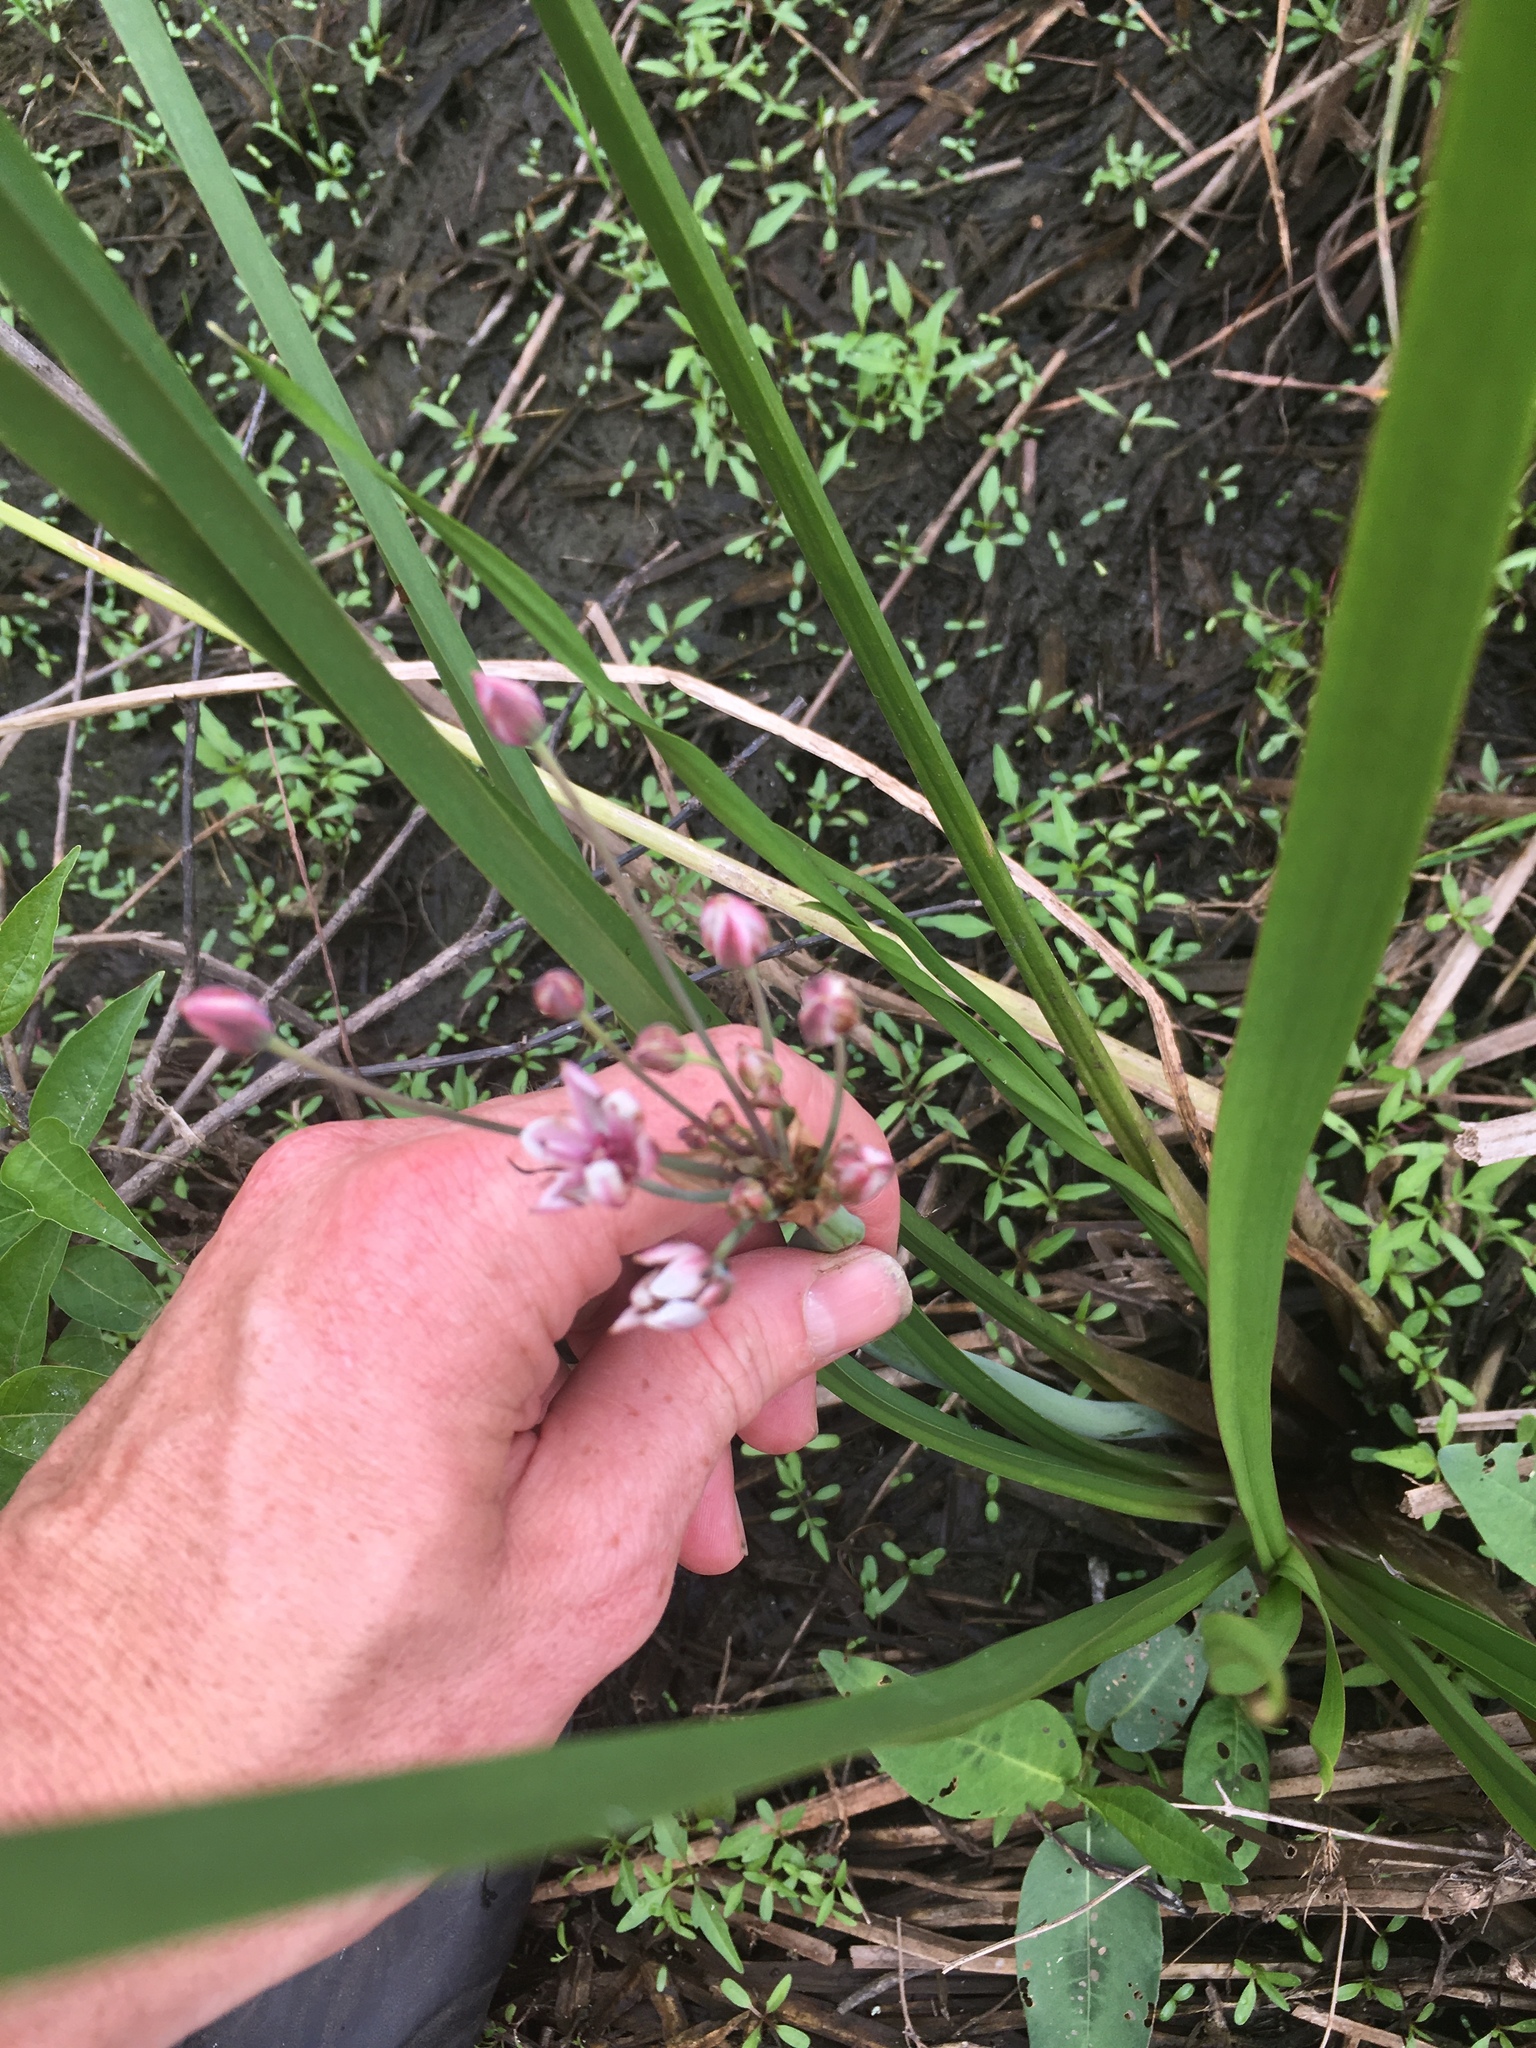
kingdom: Plantae
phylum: Tracheophyta
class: Liliopsida
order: Alismatales
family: Butomaceae
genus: Butomus
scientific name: Butomus umbellatus
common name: Flowering-rush
